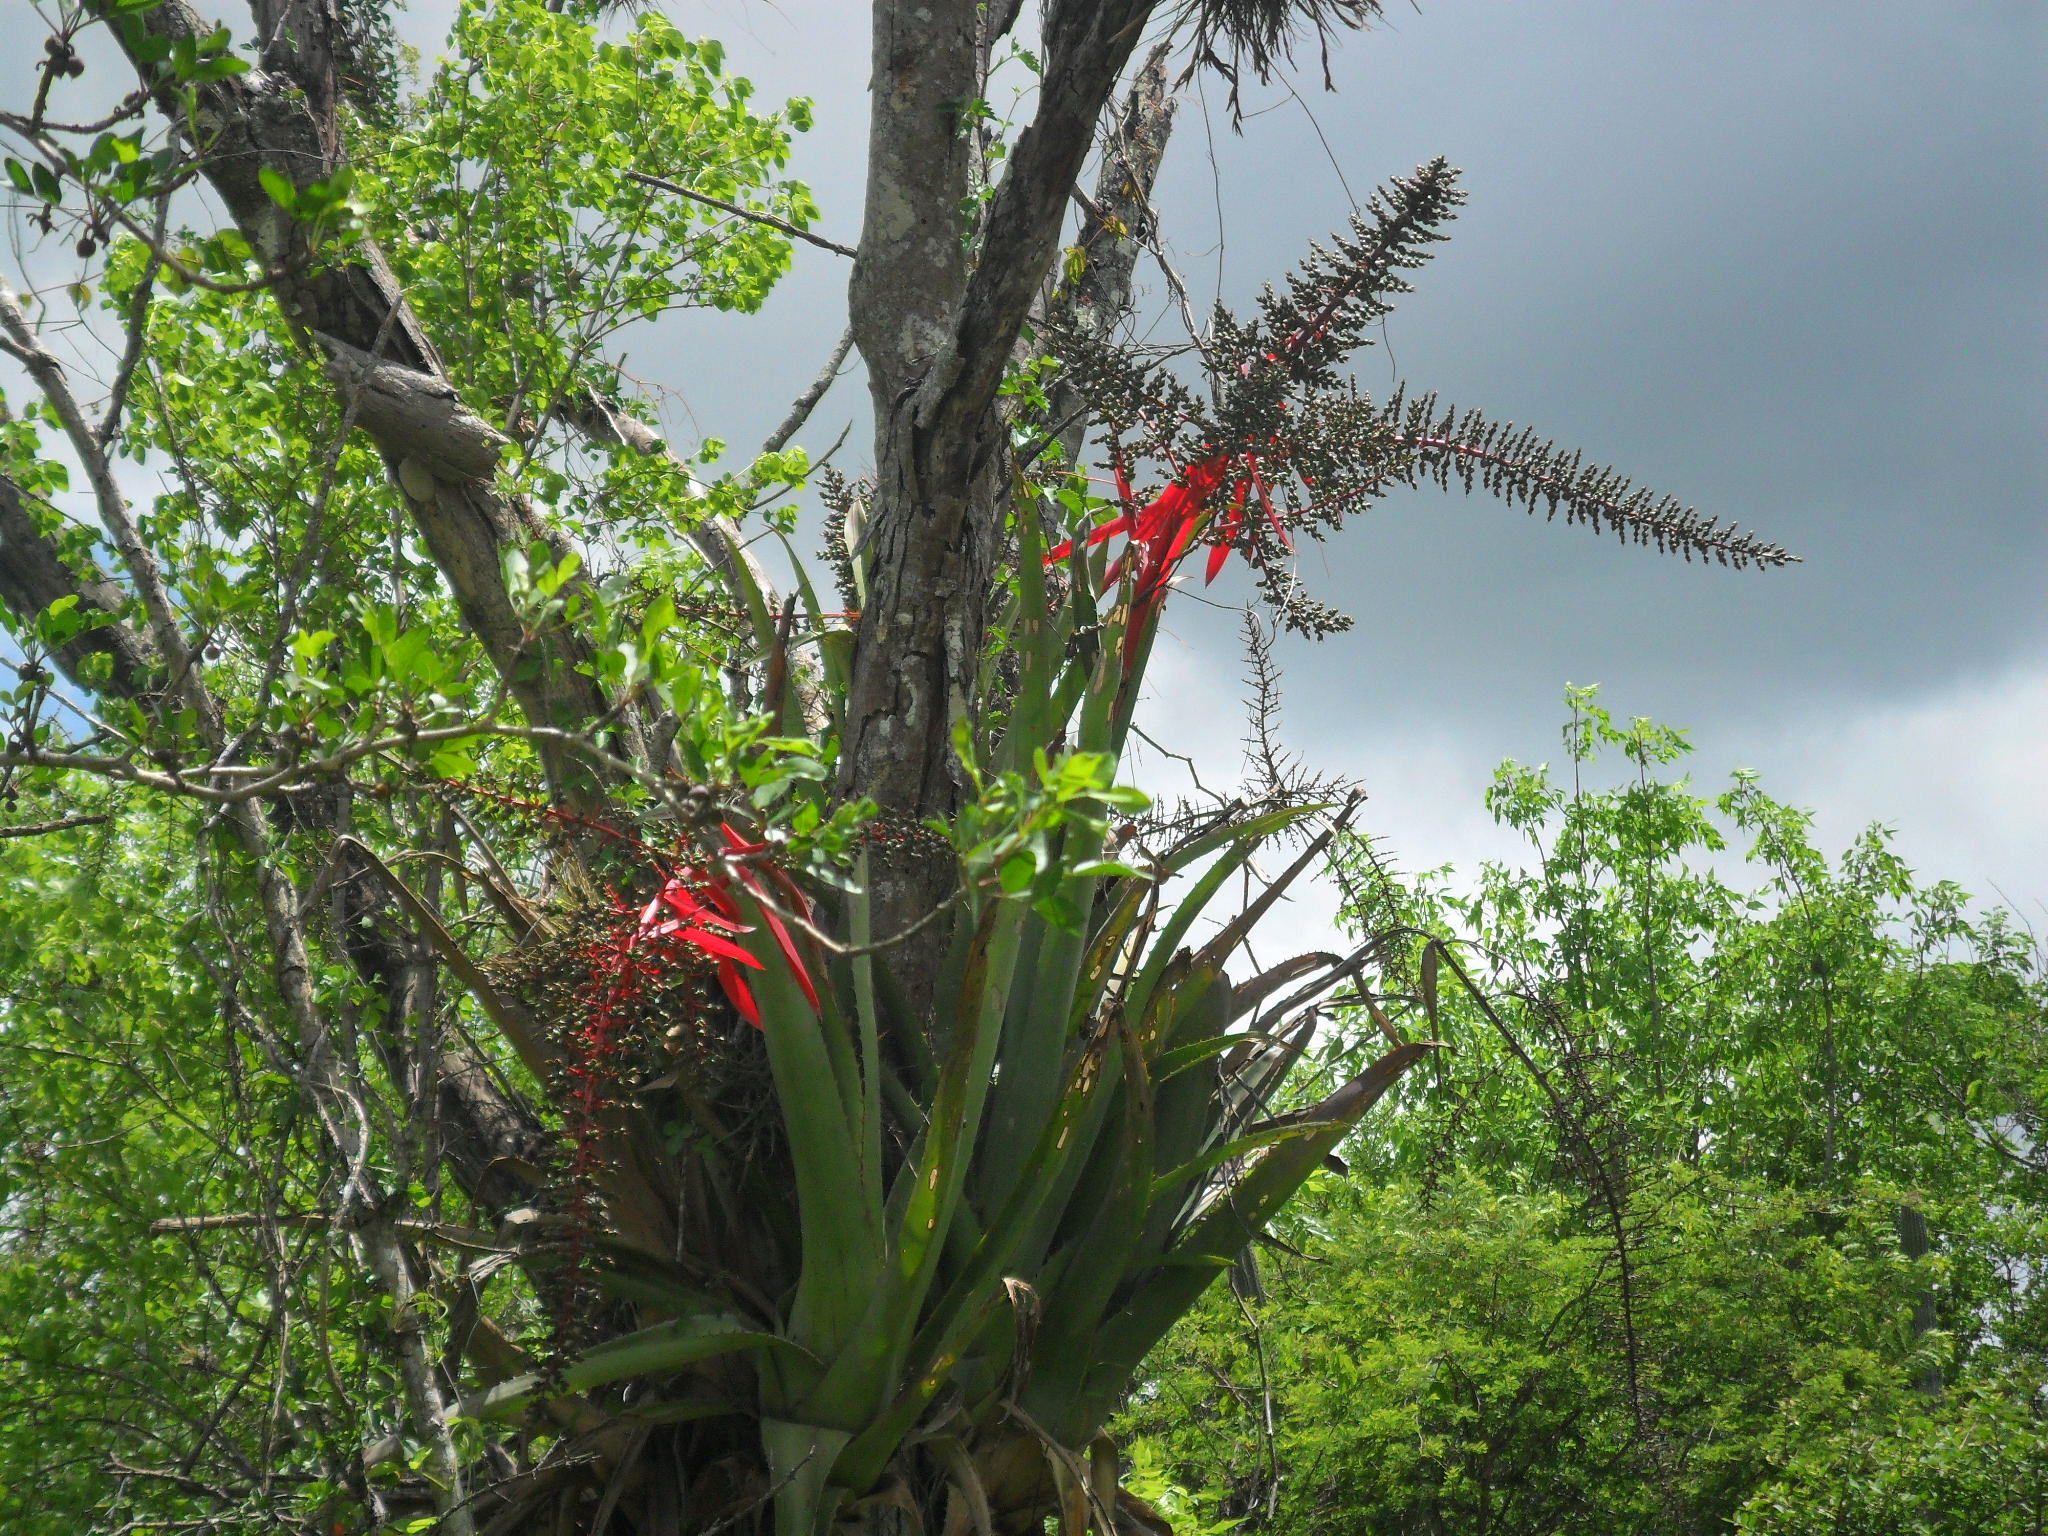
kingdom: Plantae
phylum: Tracheophyta
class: Liliopsida
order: Poales
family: Bromeliaceae
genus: Aechmea
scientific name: Aechmea bracteata
